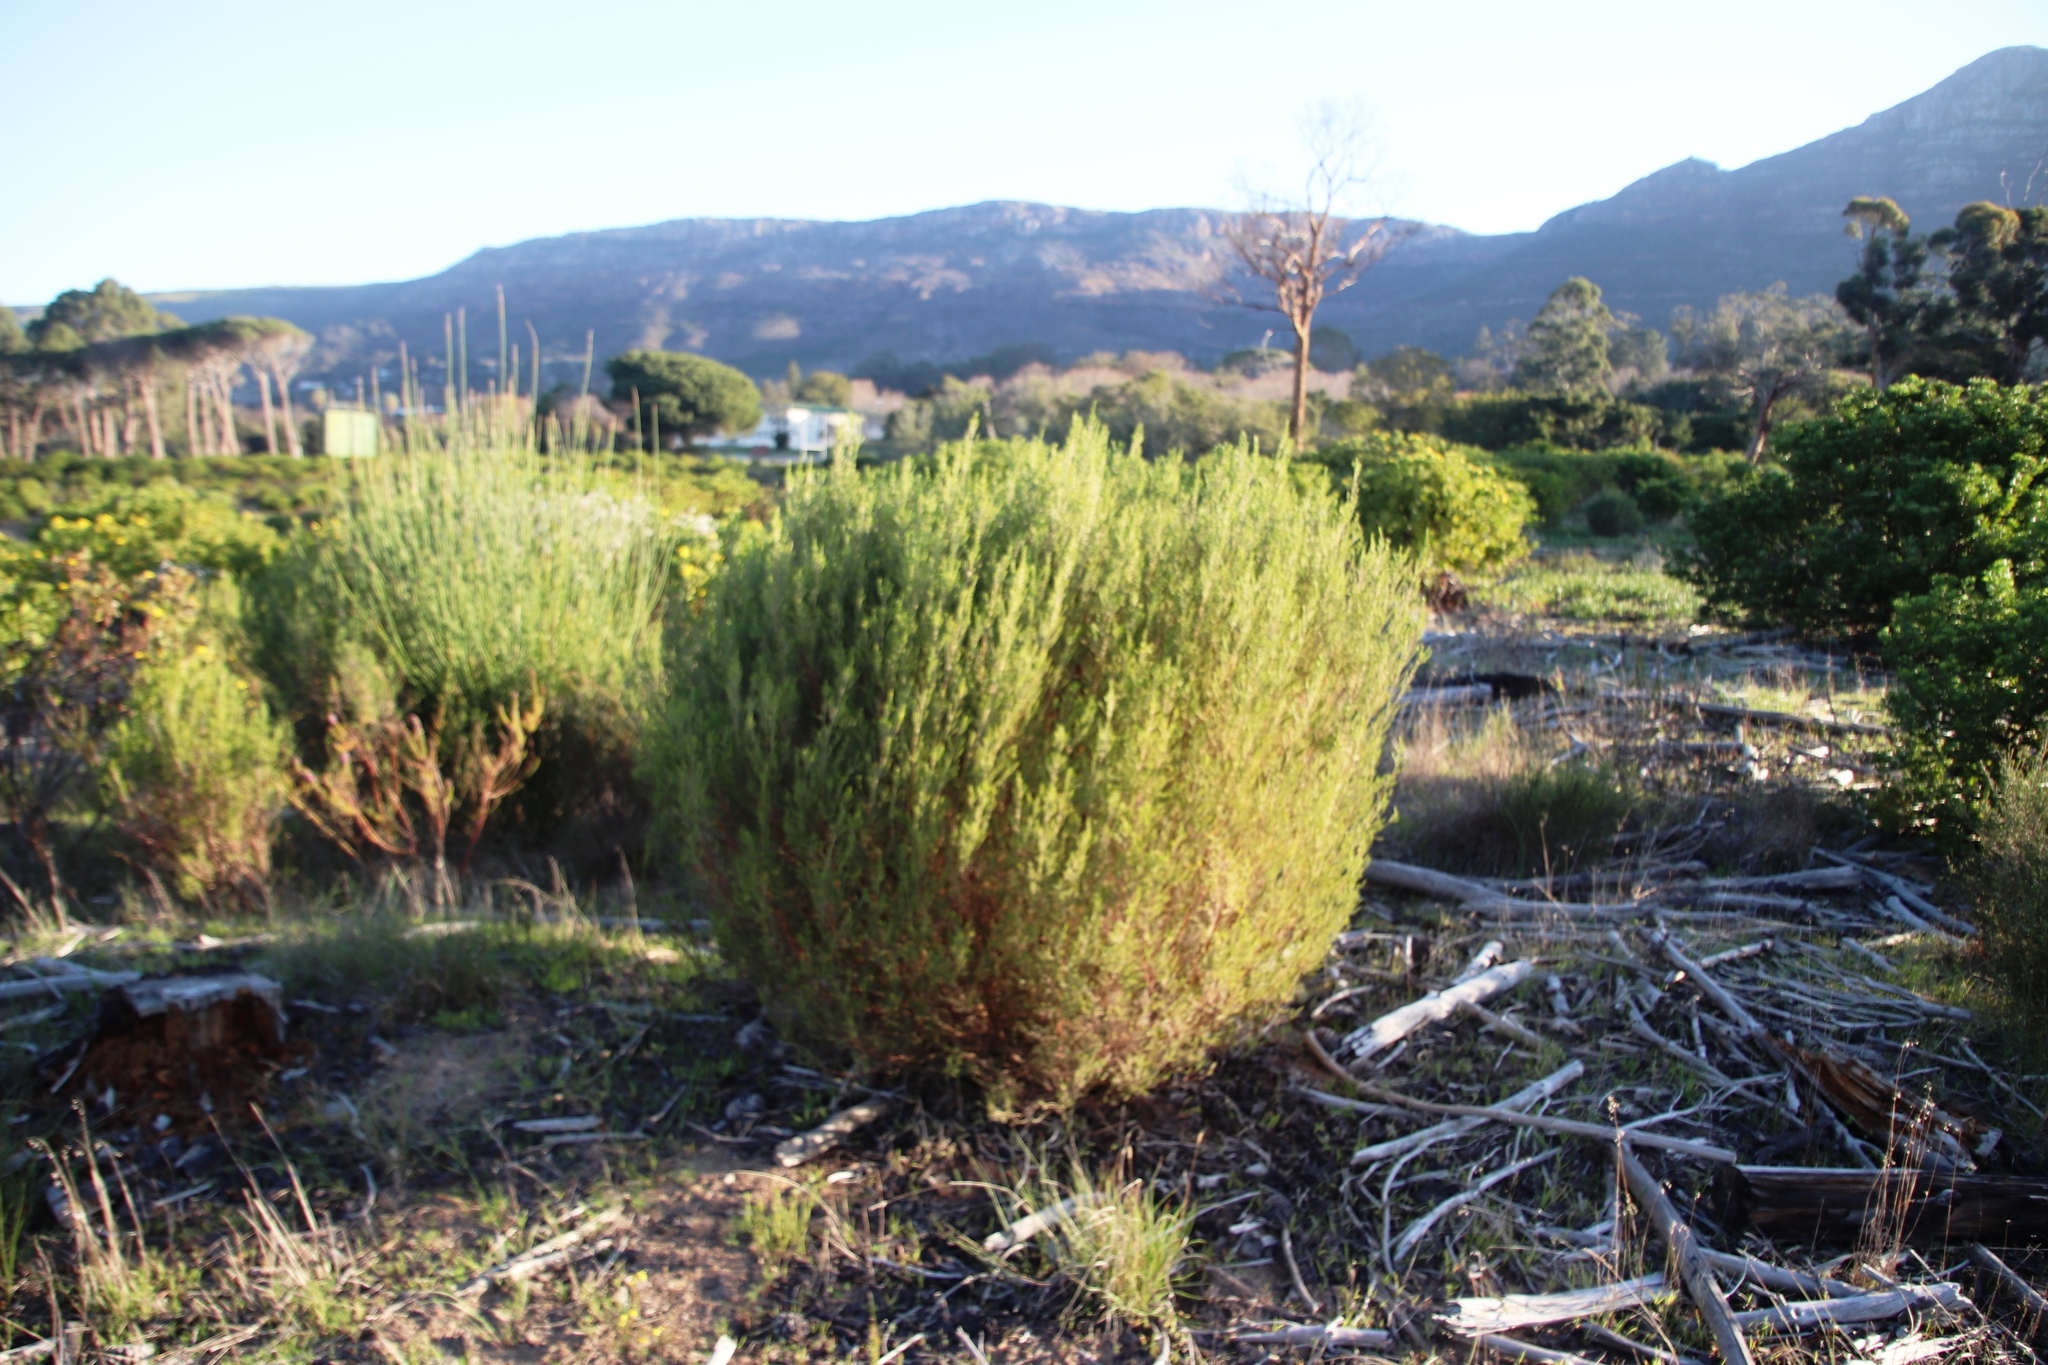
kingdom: Plantae
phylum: Tracheophyta
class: Magnoliopsida
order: Malvales
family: Thymelaeaceae
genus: Passerina
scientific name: Passerina corymbosa
